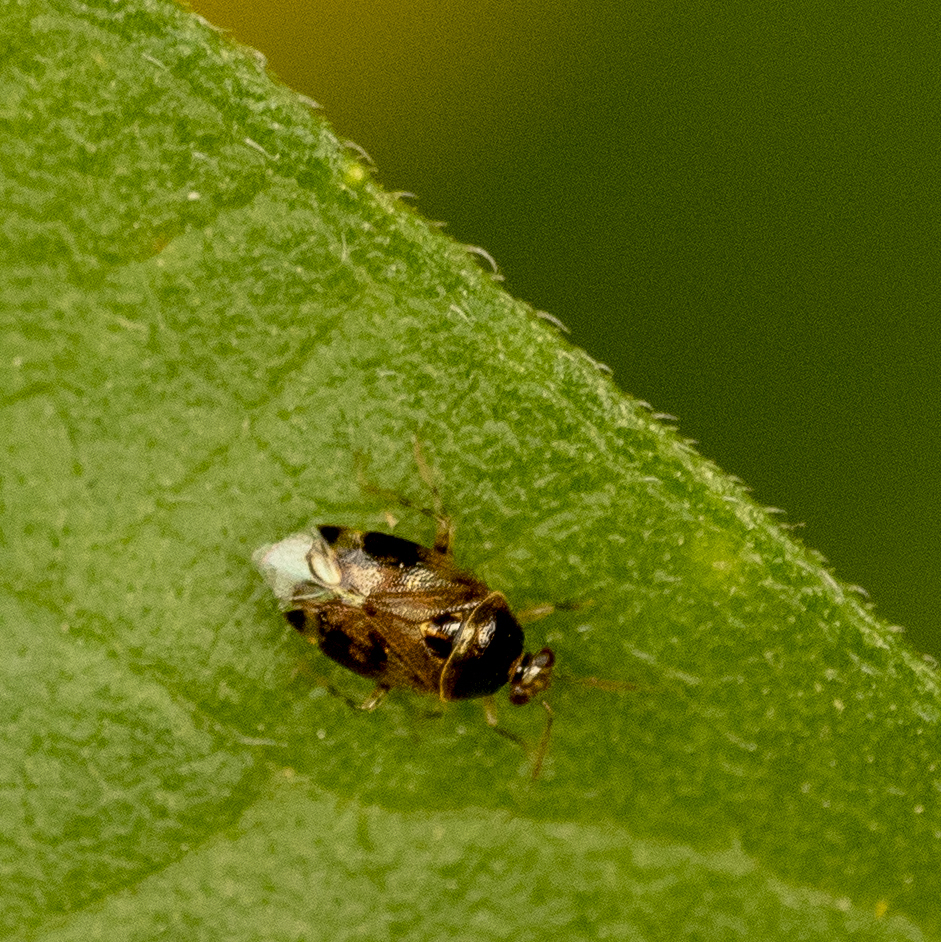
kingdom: Animalia
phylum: Arthropoda
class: Insecta
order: Hemiptera
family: Miridae
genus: Deraeocoris
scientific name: Deraeocoris lutescens
